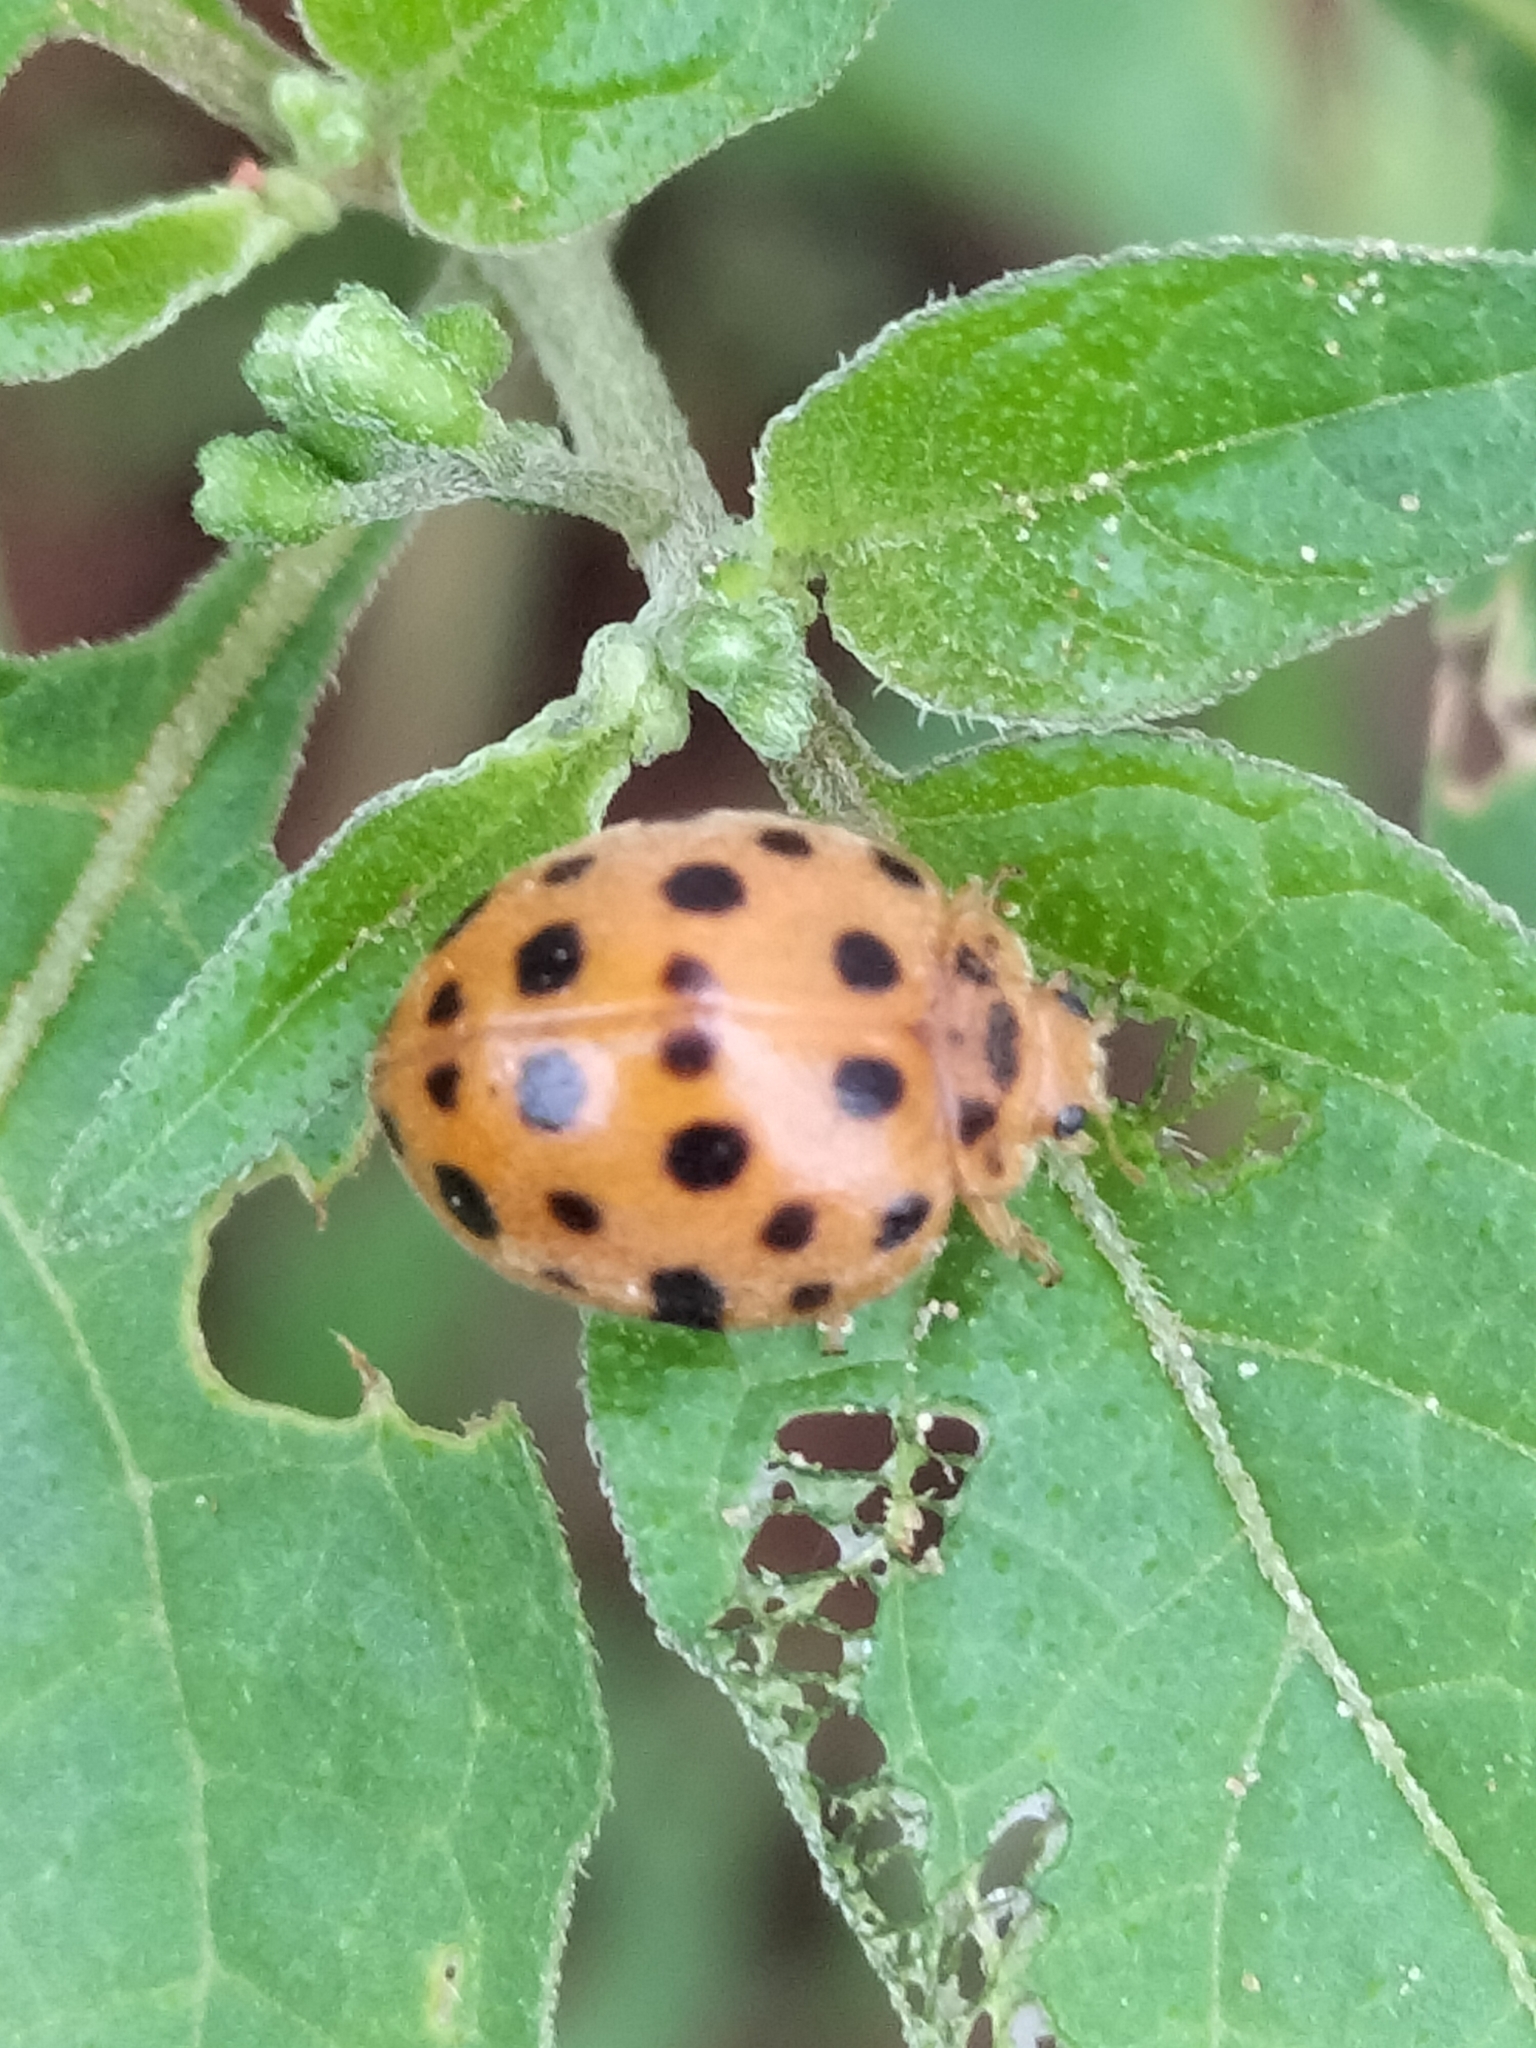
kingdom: Animalia
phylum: Arthropoda
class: Insecta
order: Coleoptera
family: Coccinellidae
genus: Henosepilachna
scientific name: Henosepilachna vigintioctopunctata
